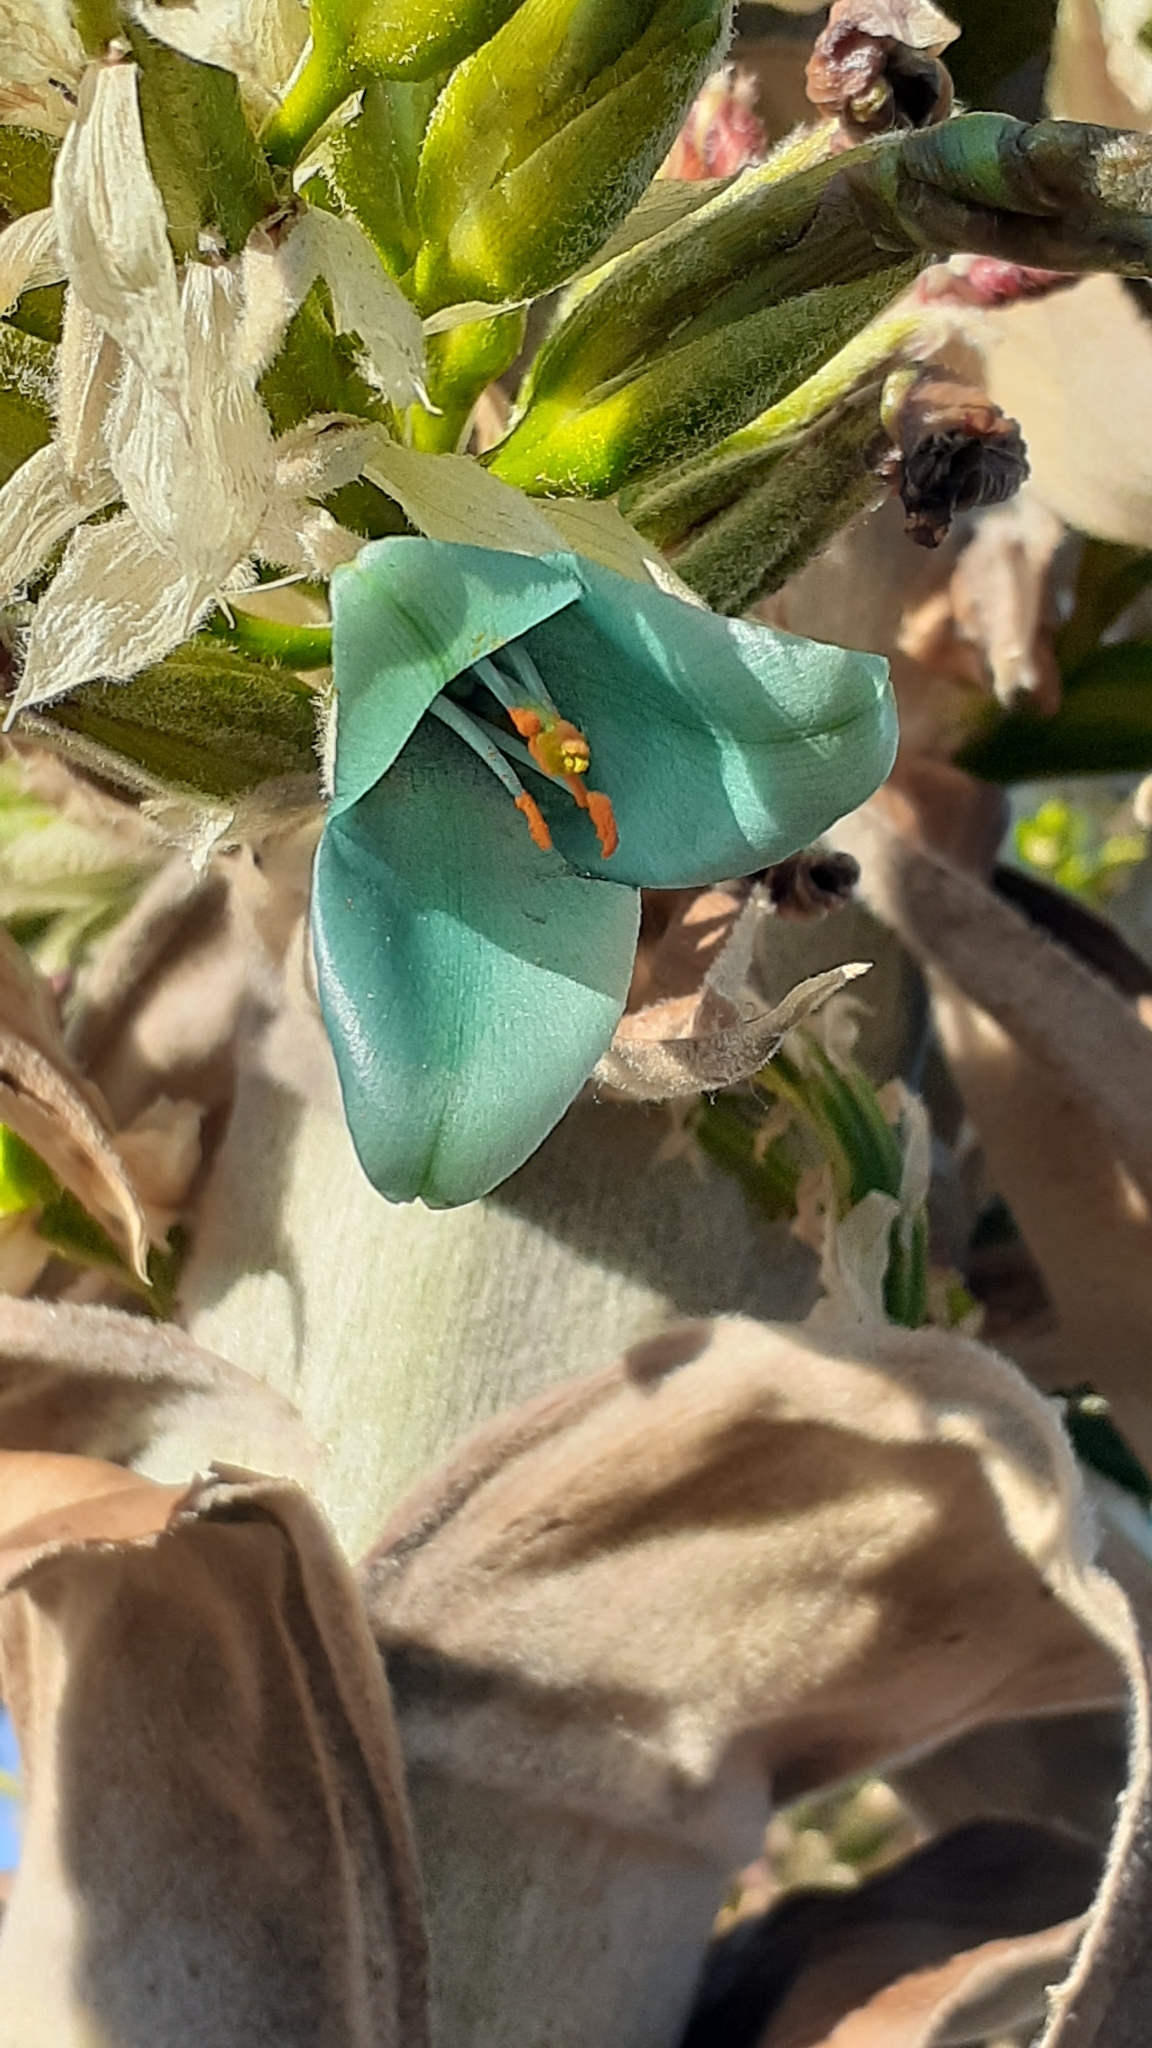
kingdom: Plantae
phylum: Tracheophyta
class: Liliopsida
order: Poales
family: Bromeliaceae
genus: Puya
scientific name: Puya alpestris
